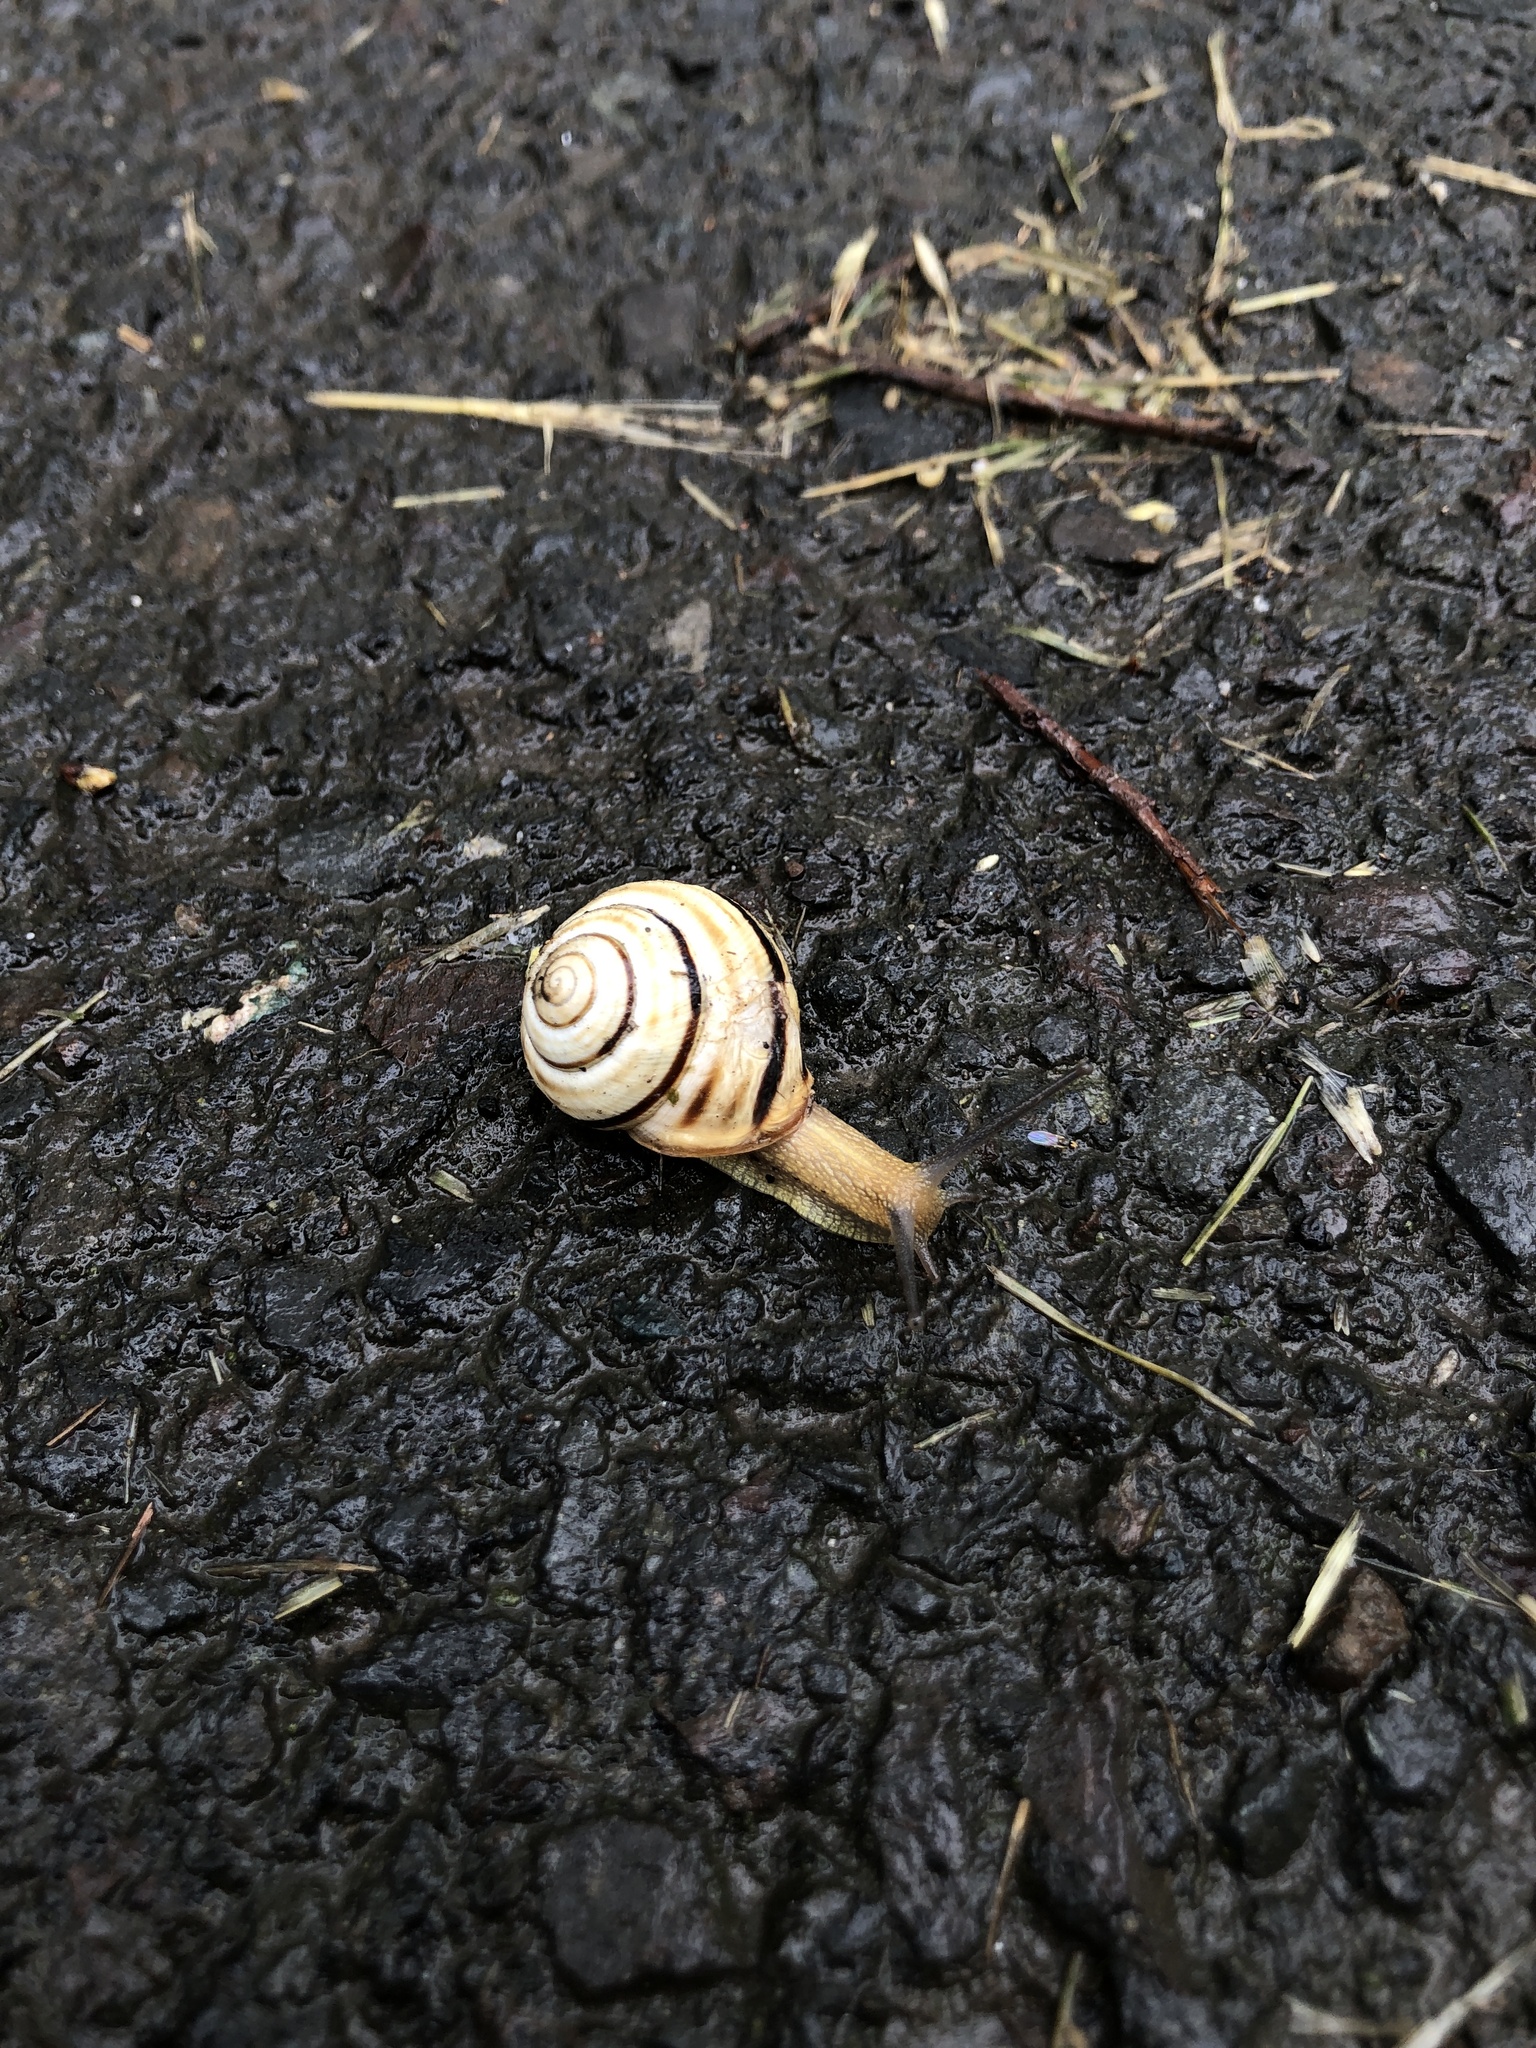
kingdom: Animalia
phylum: Mollusca
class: Gastropoda
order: Stylommatophora
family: Helicidae
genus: Caucasotachea
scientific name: Caucasotachea vindobonensis
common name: European helicid land snail
